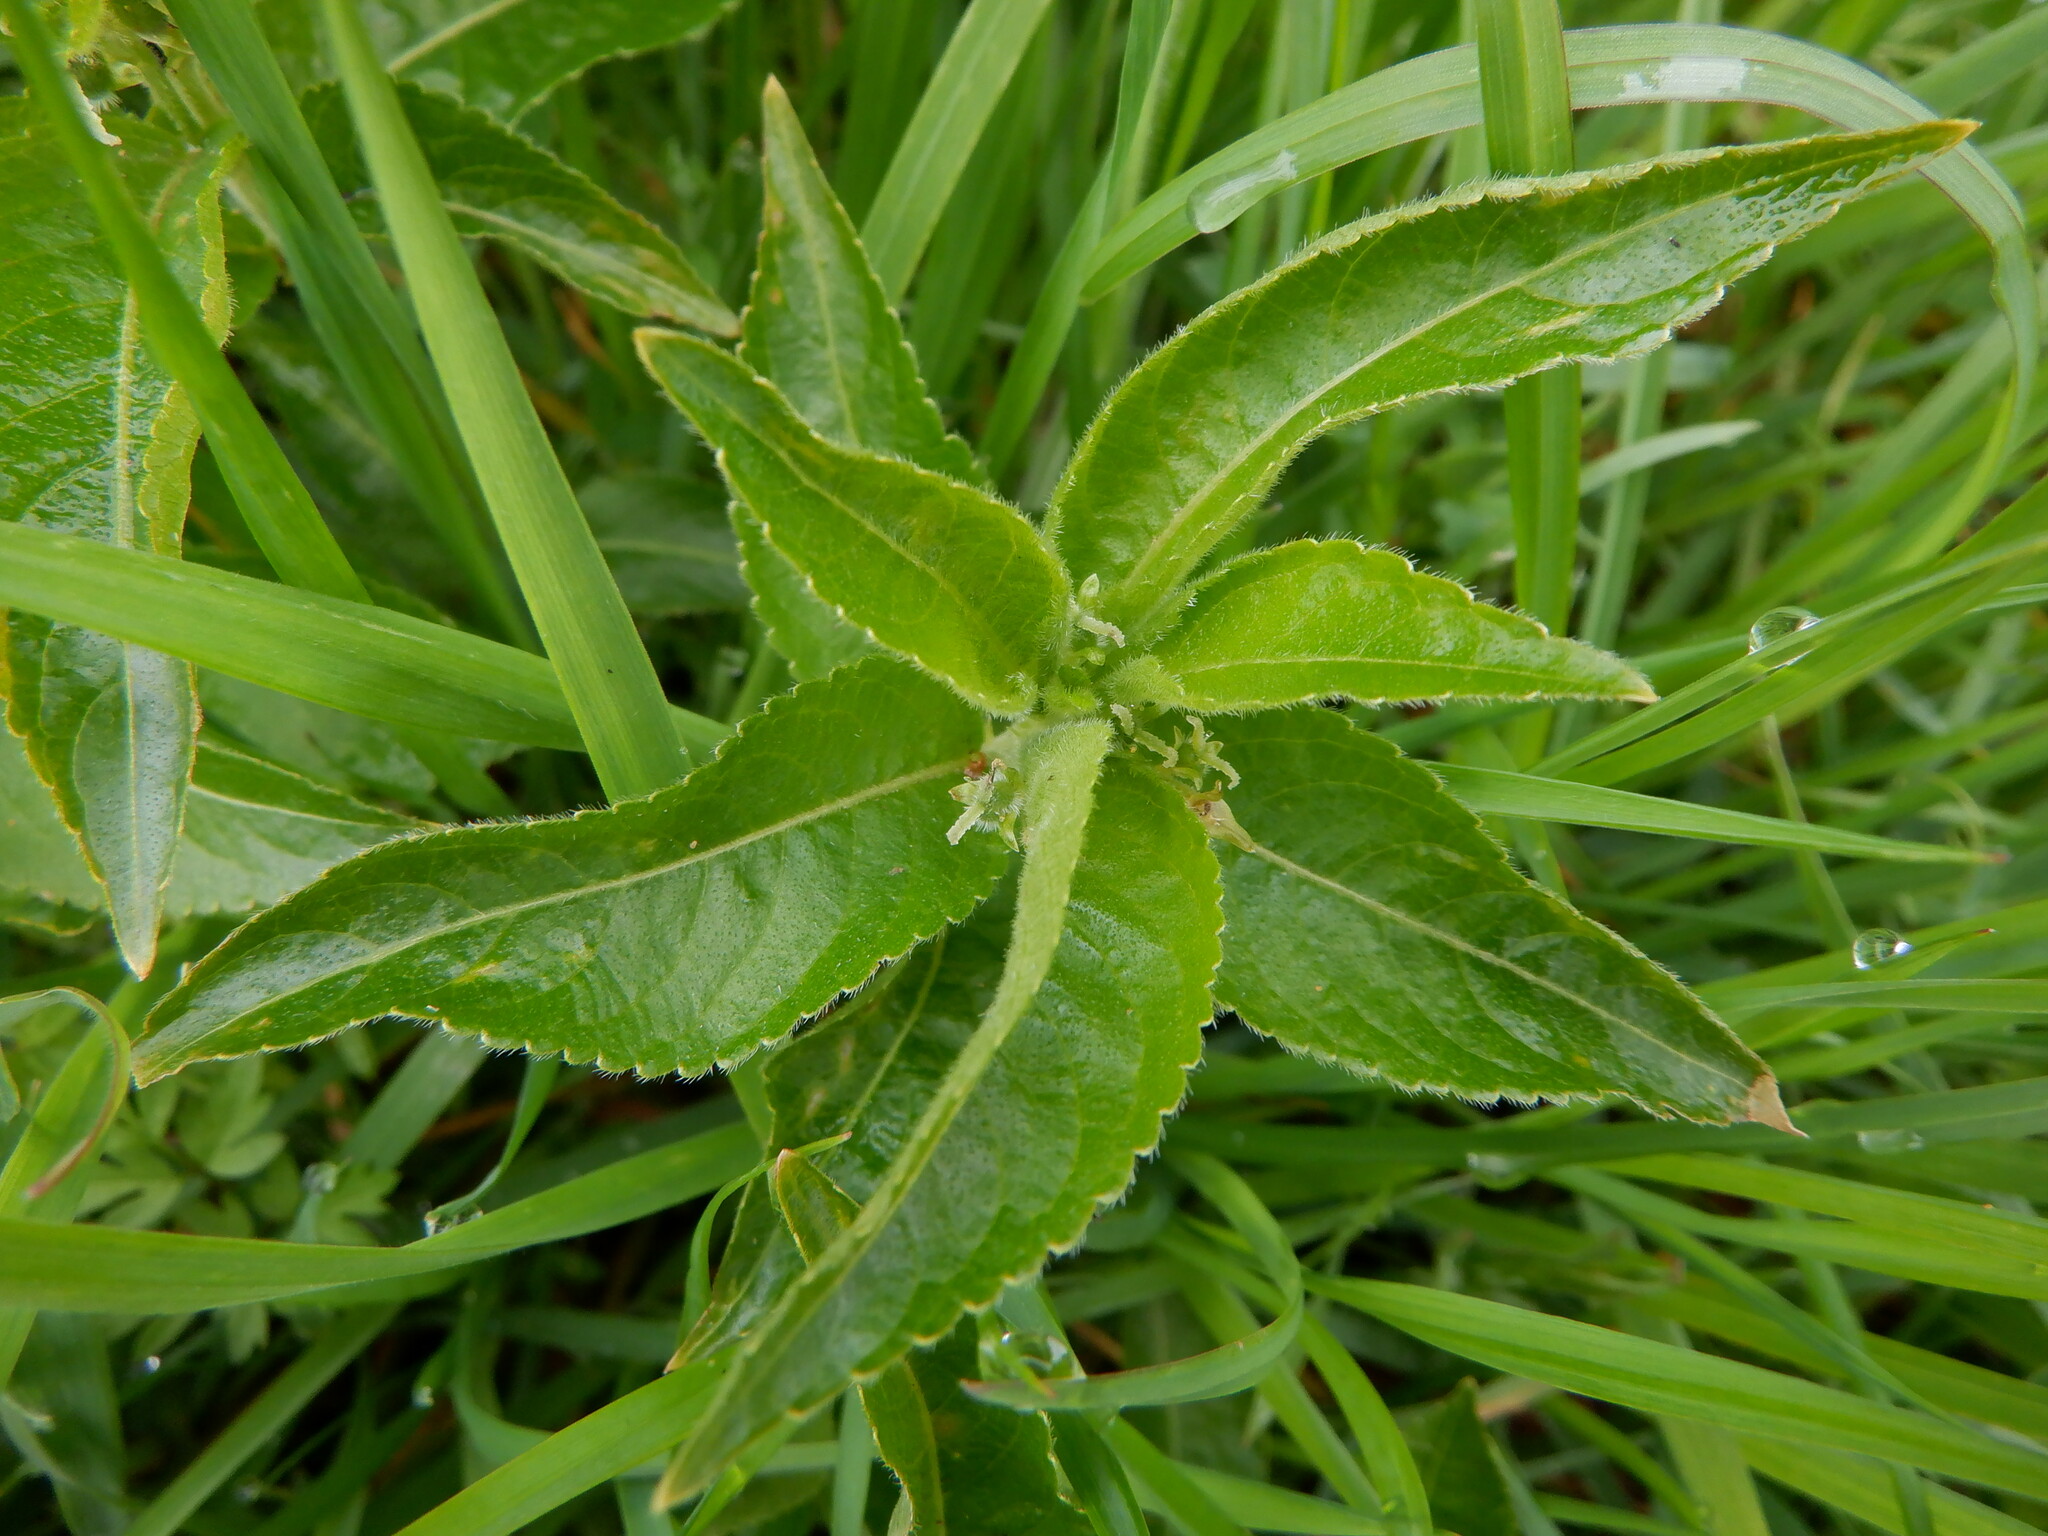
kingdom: Plantae
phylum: Tracheophyta
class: Magnoliopsida
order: Malpighiales
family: Euphorbiaceae
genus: Mercurialis
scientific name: Mercurialis perennis
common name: Dog mercury
